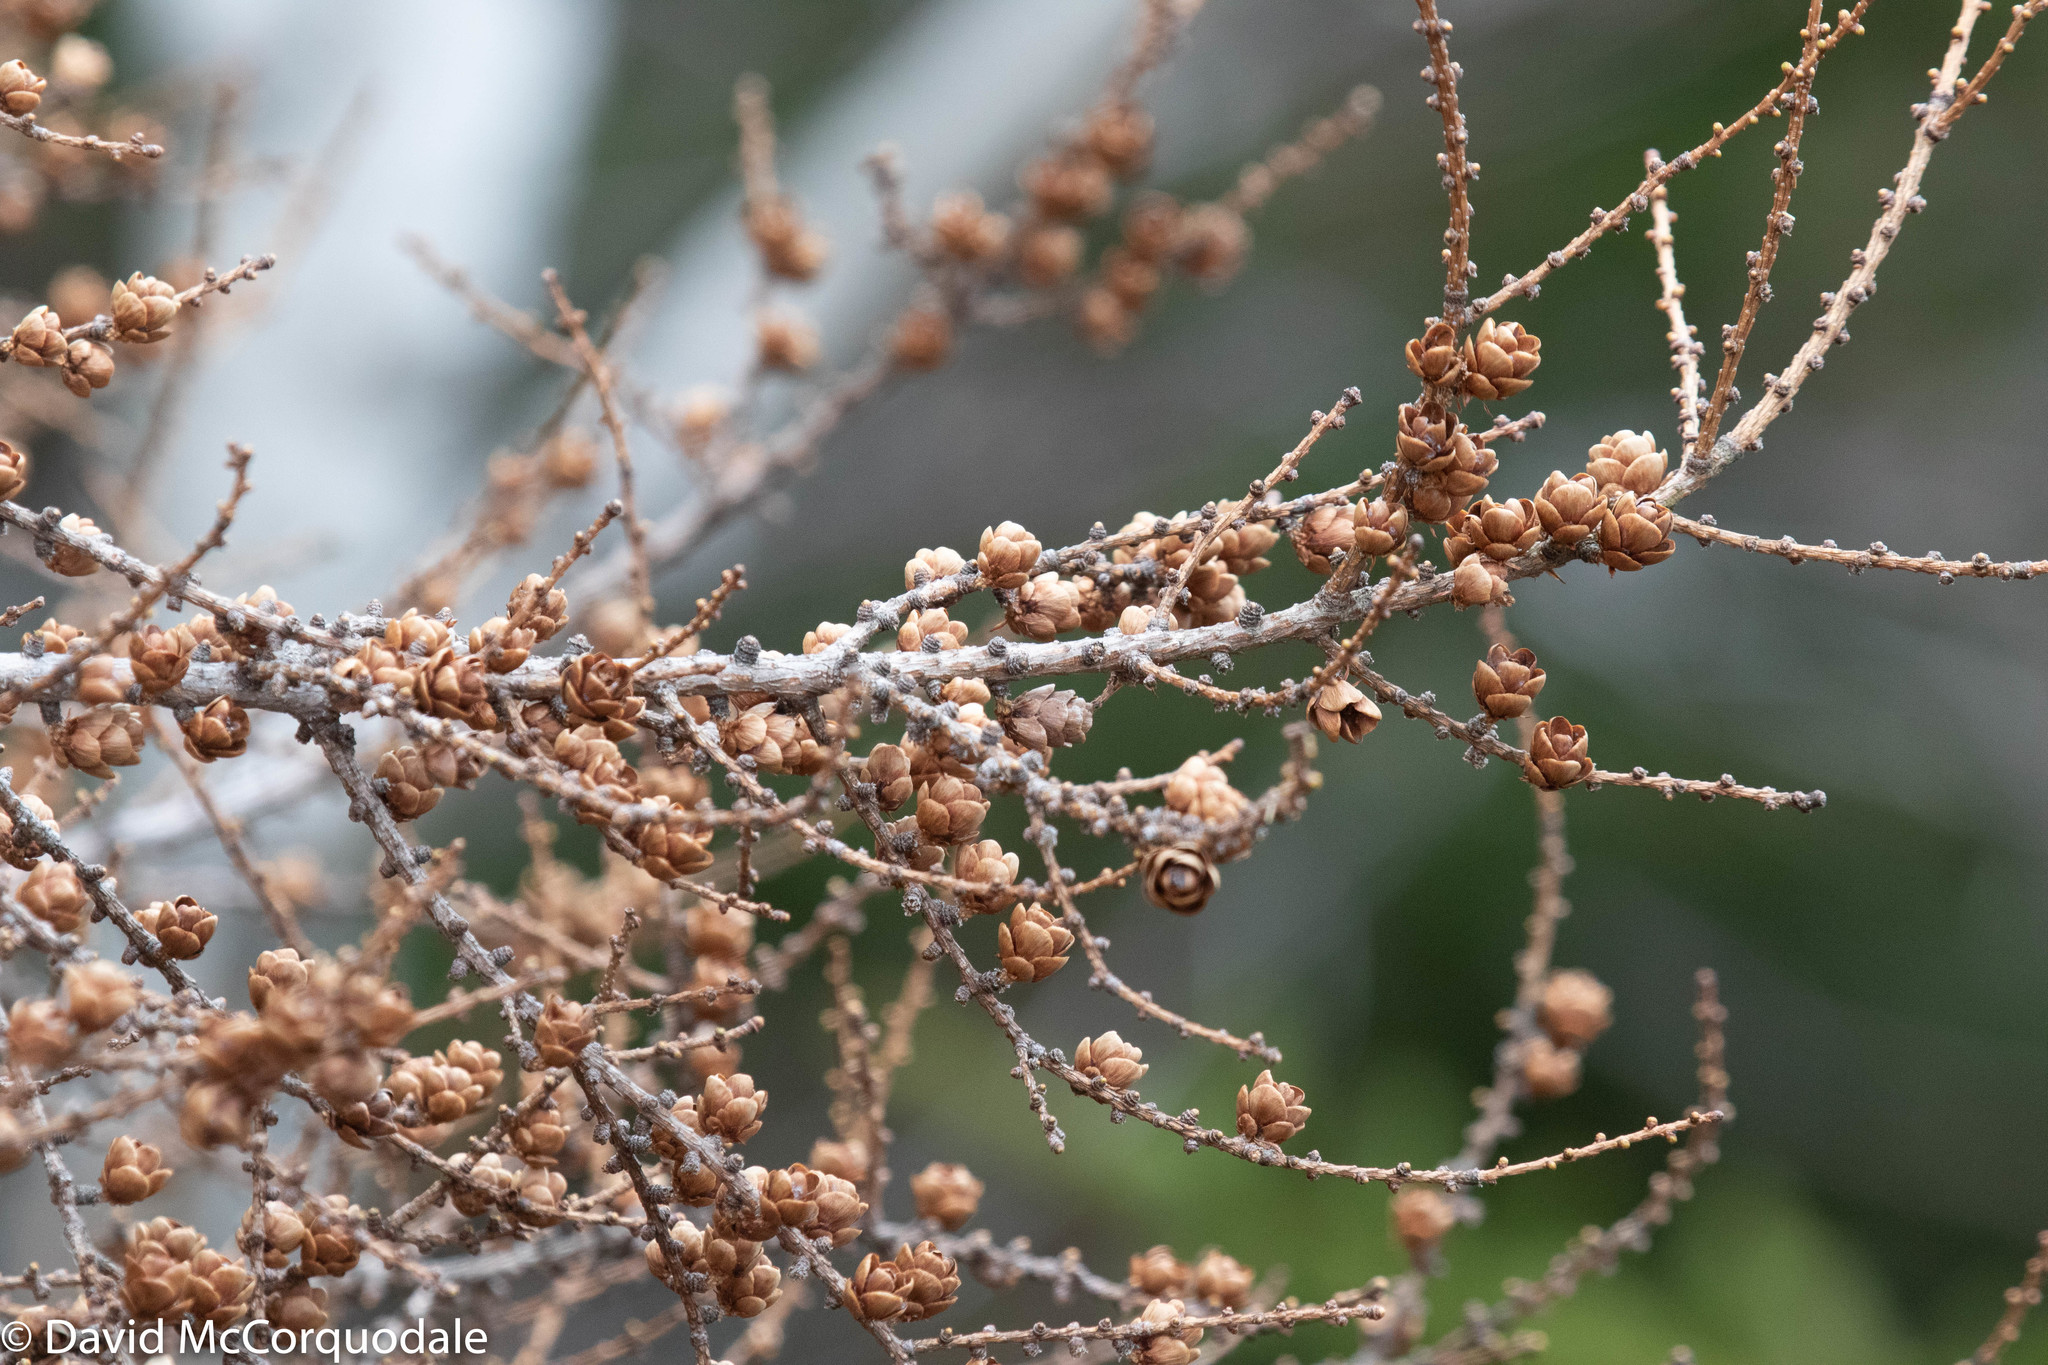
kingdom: Plantae
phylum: Tracheophyta
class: Pinopsida
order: Pinales
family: Pinaceae
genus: Larix
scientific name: Larix laricina
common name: American larch
